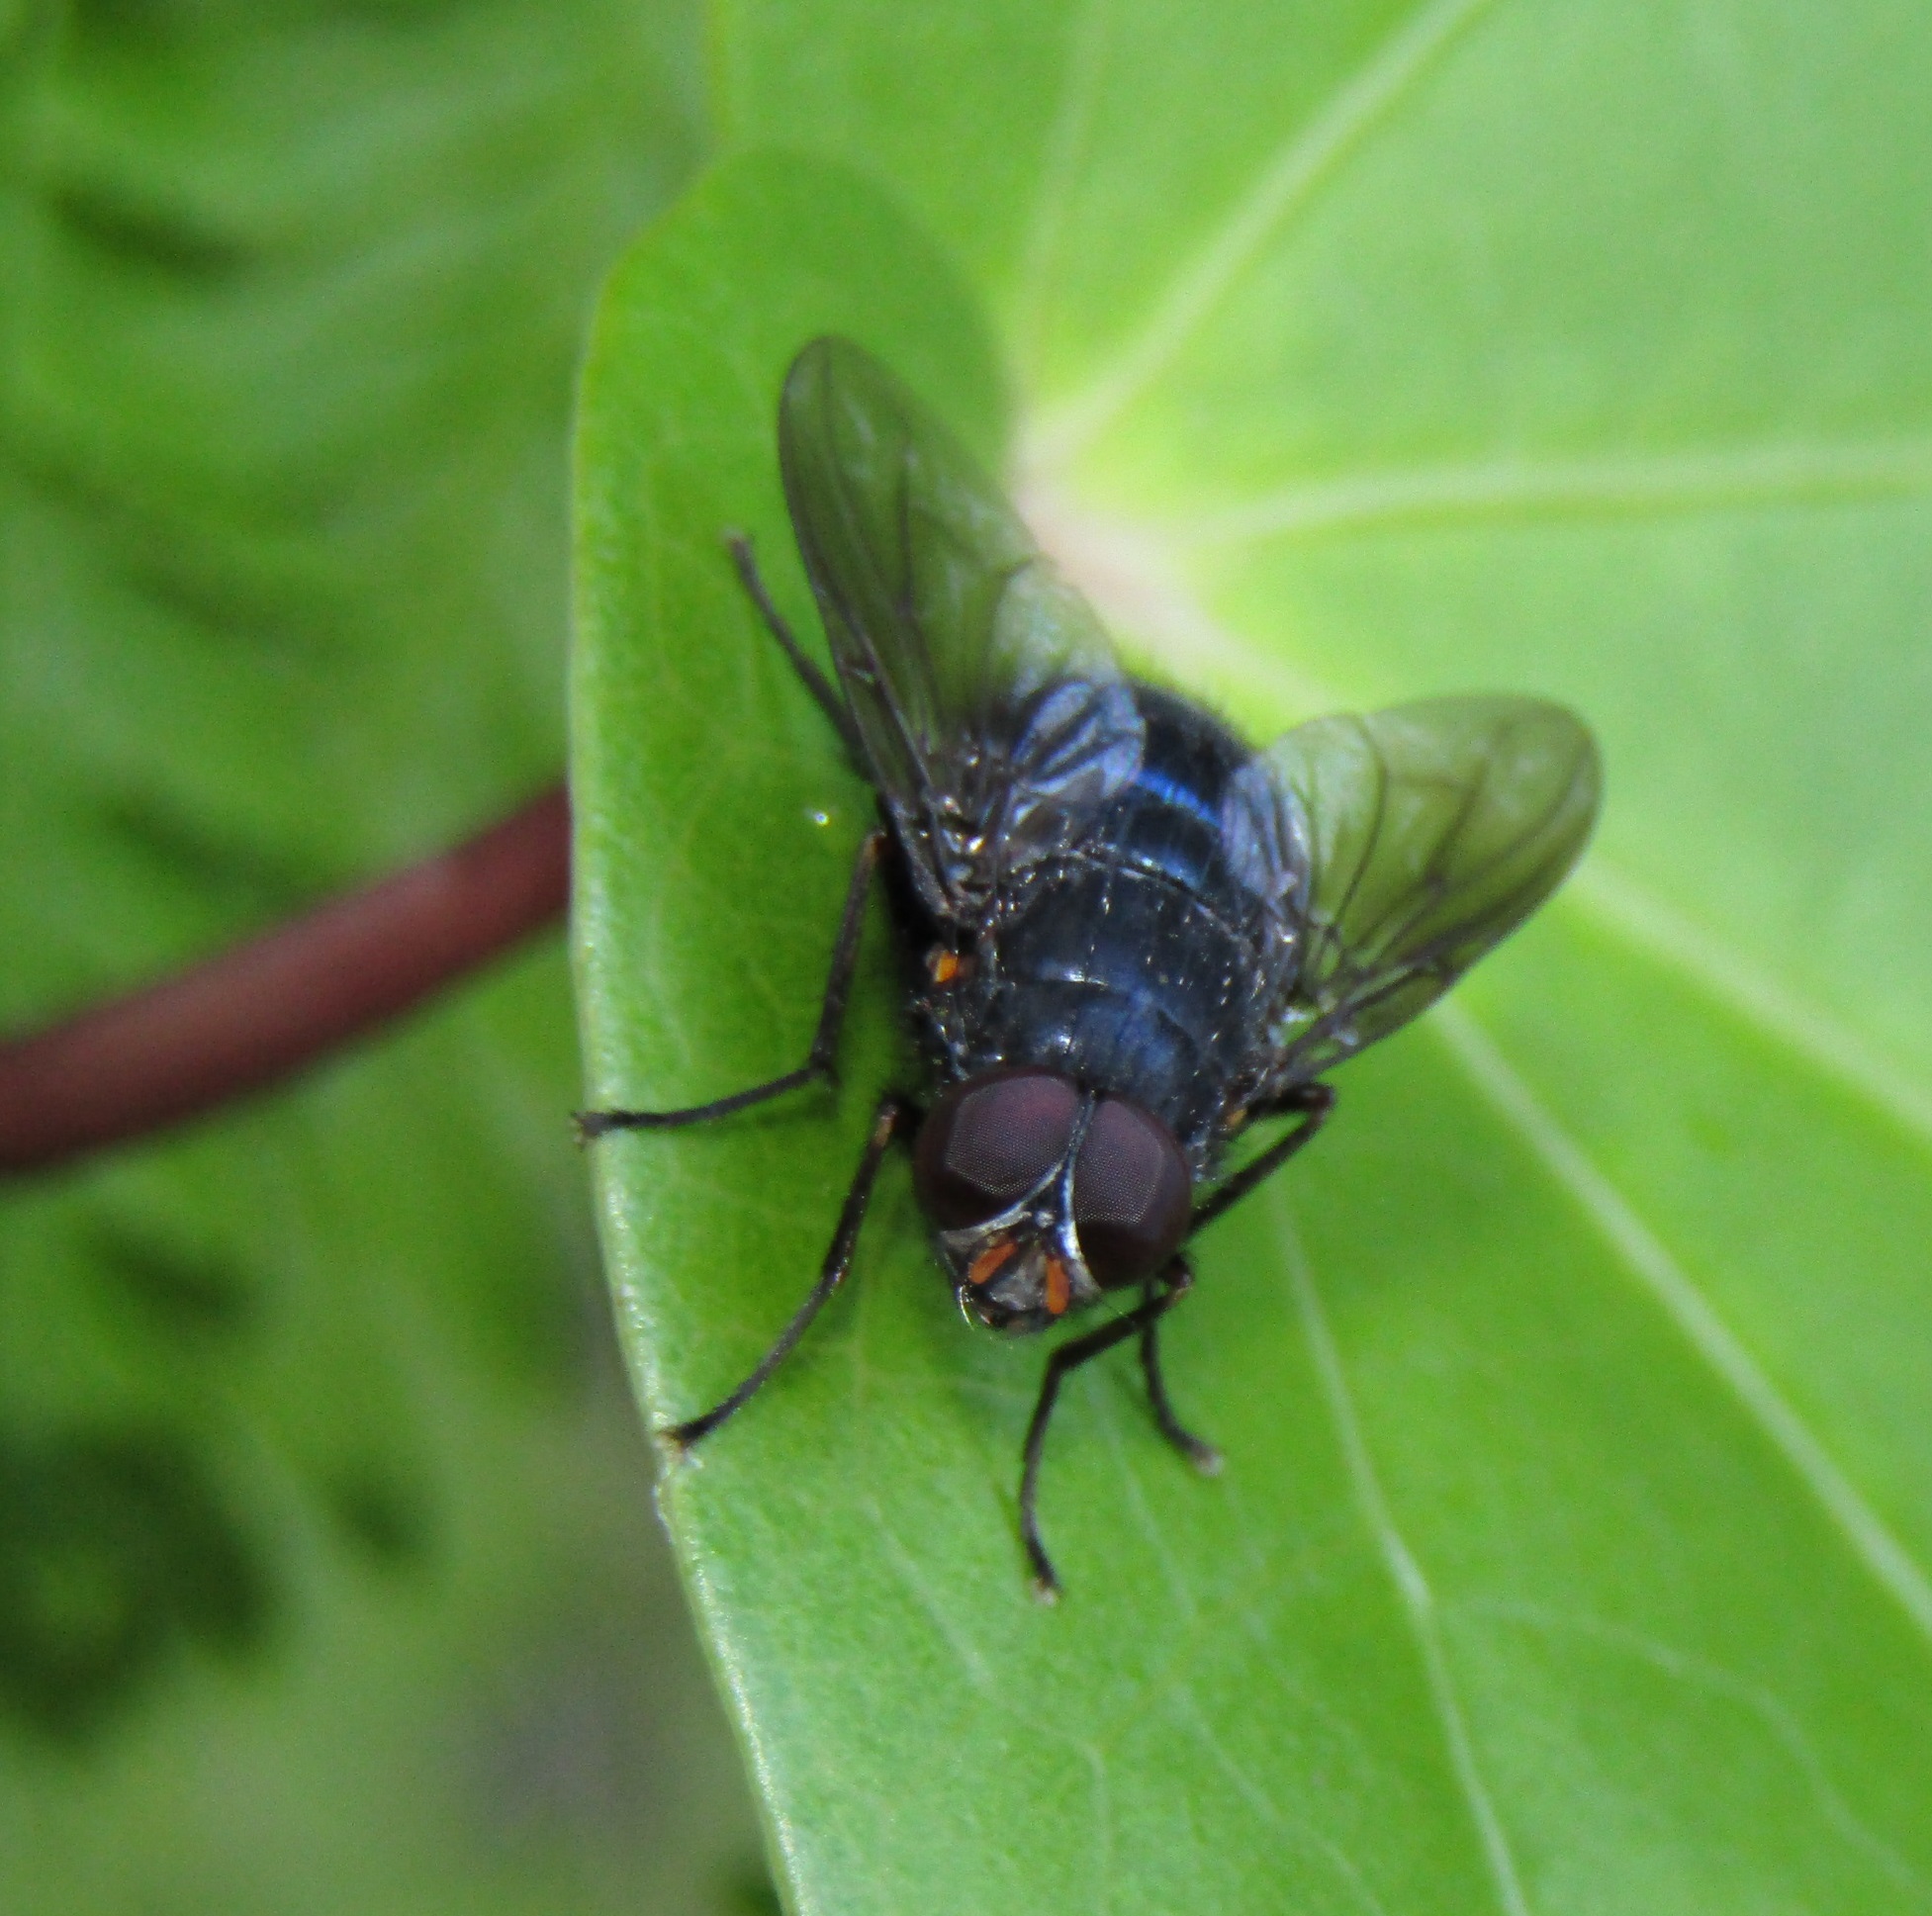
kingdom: Animalia
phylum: Arthropoda
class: Insecta
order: Diptera
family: Muscidae
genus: Calliphoroides
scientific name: Calliphoroides antennatis
